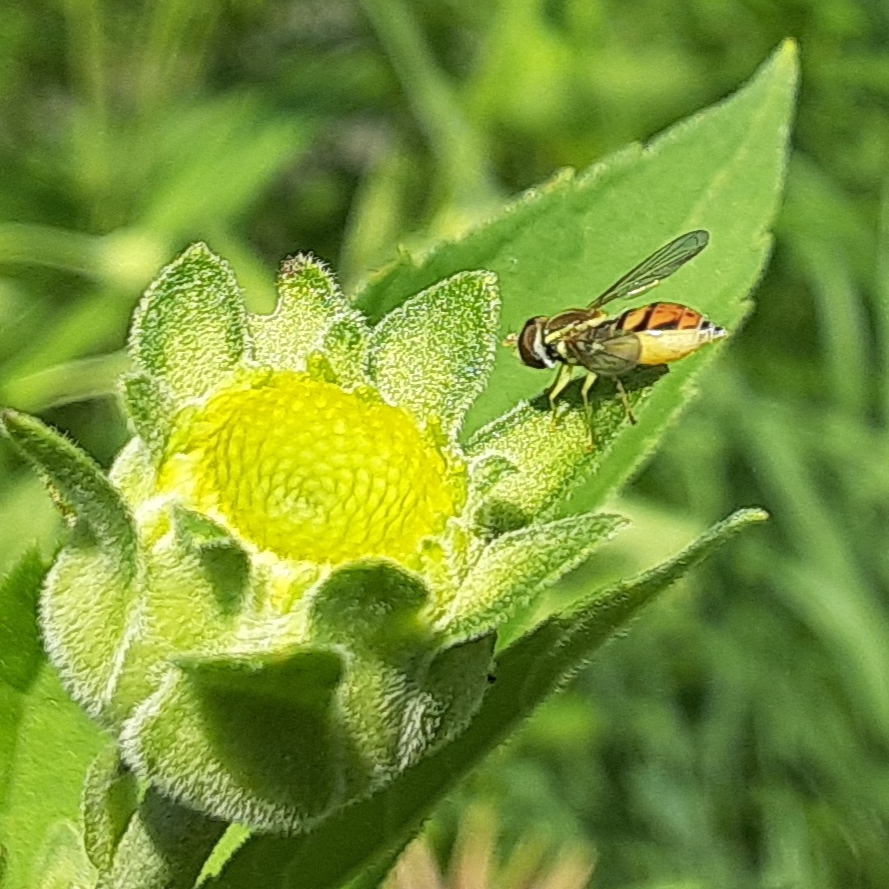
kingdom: Animalia
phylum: Arthropoda
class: Insecta
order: Diptera
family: Syrphidae
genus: Toxomerus
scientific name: Toxomerus marginatus
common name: Syrphid fly
